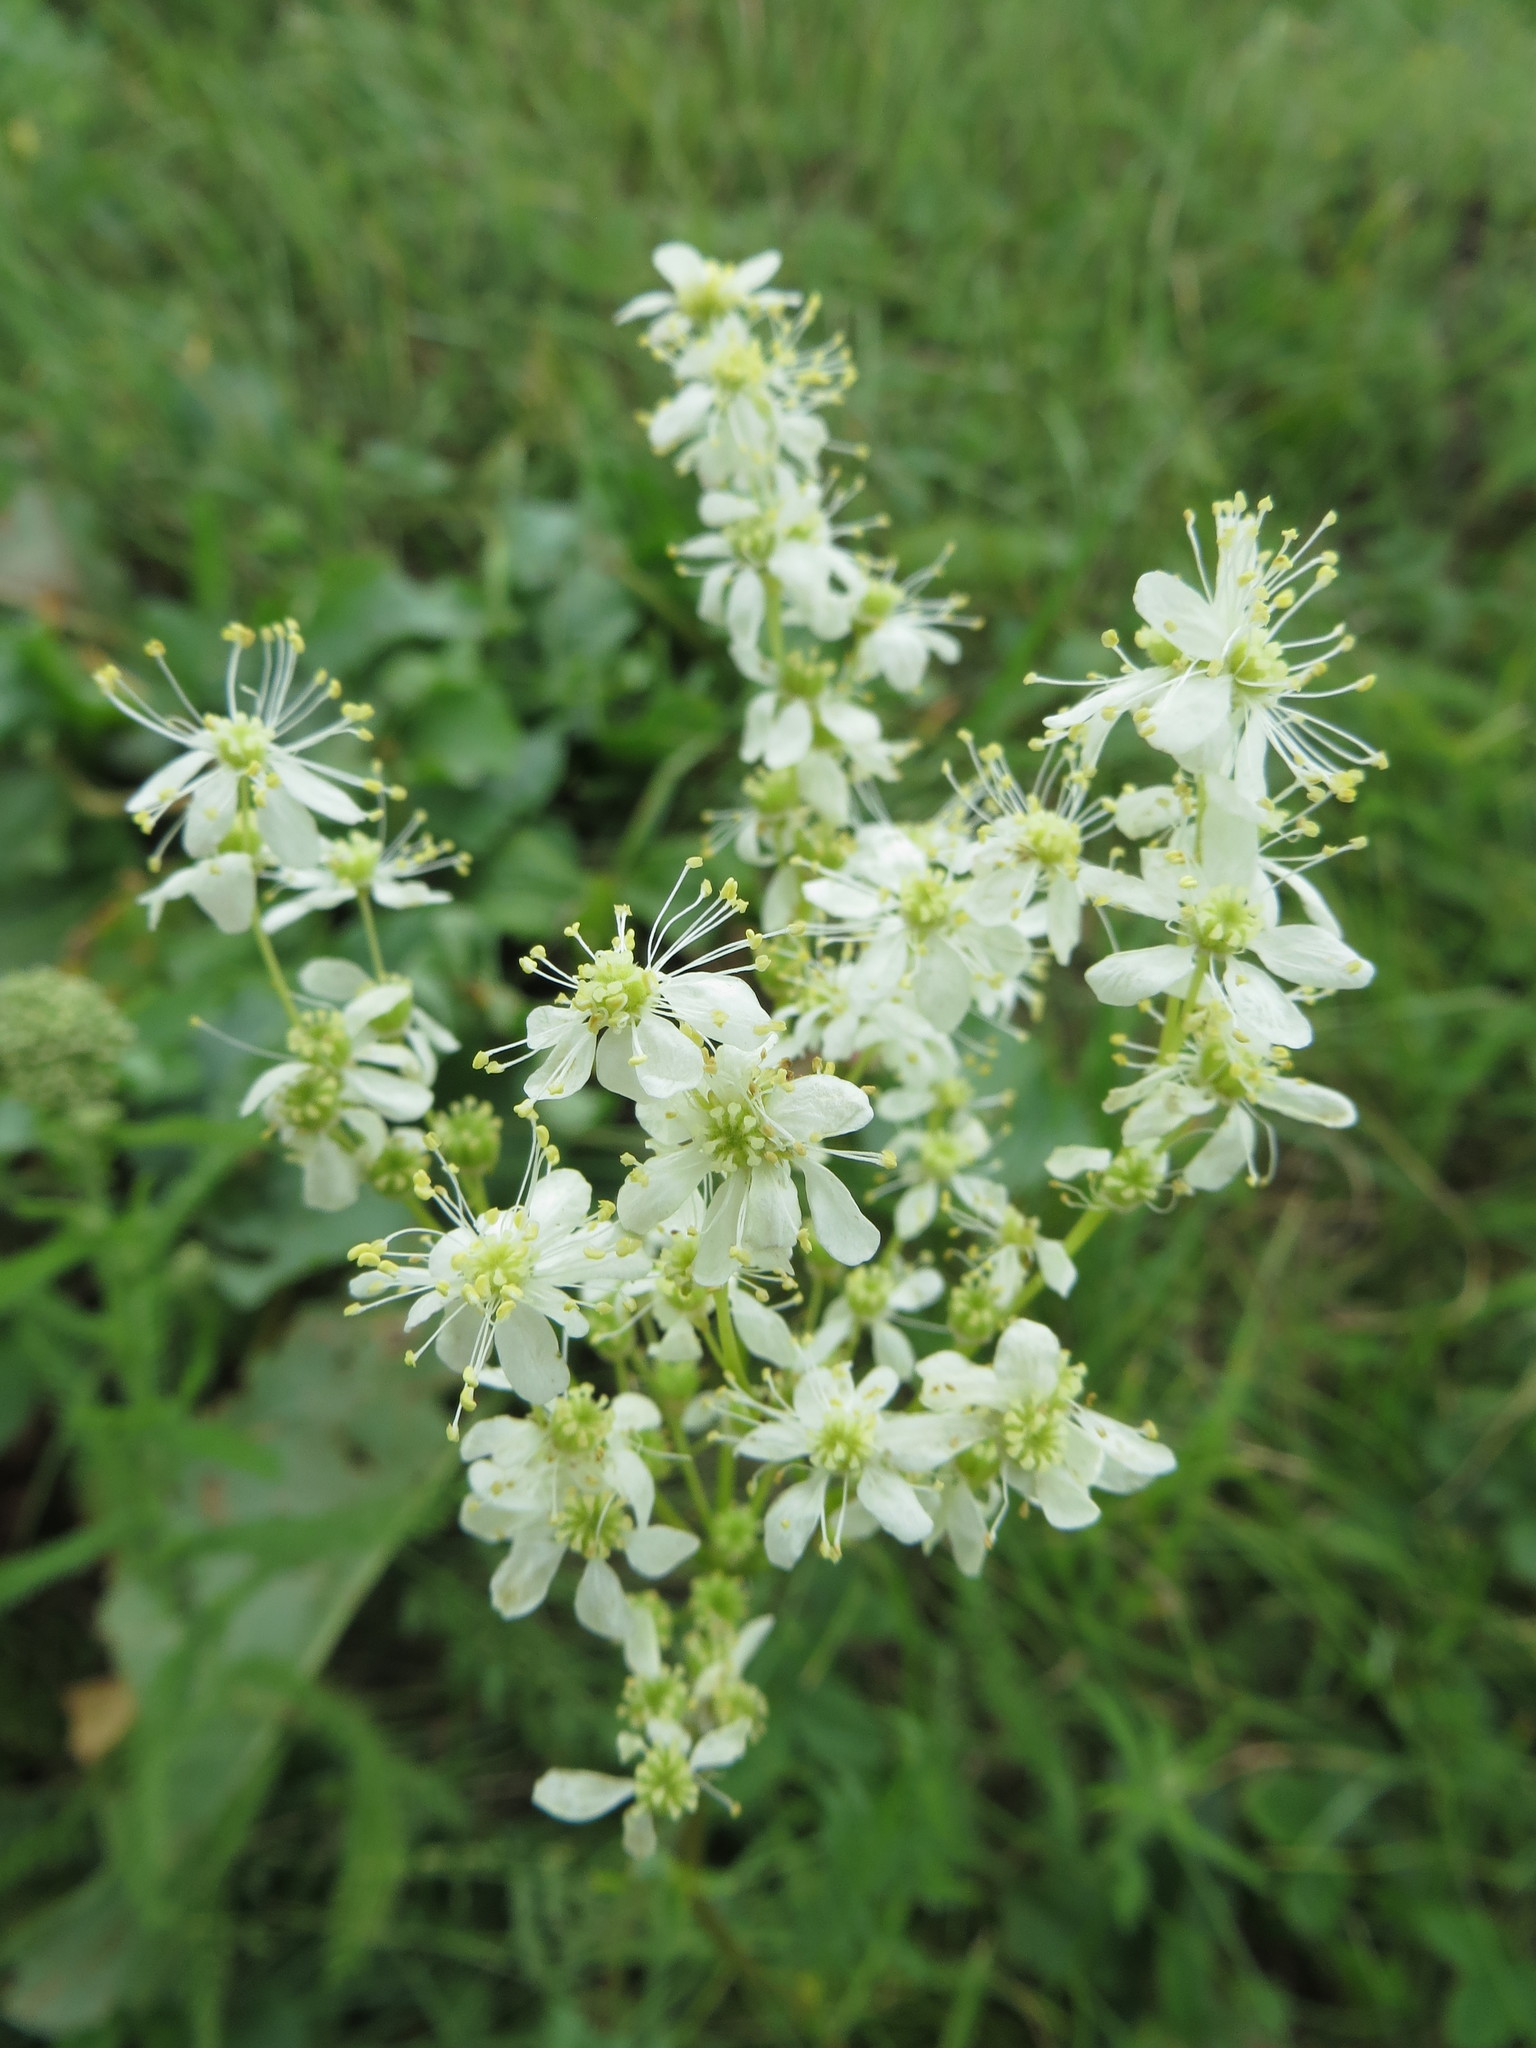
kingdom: Plantae
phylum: Tracheophyta
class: Magnoliopsida
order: Rosales
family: Rosaceae
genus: Filipendula
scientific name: Filipendula vulgaris
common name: Dropwort
